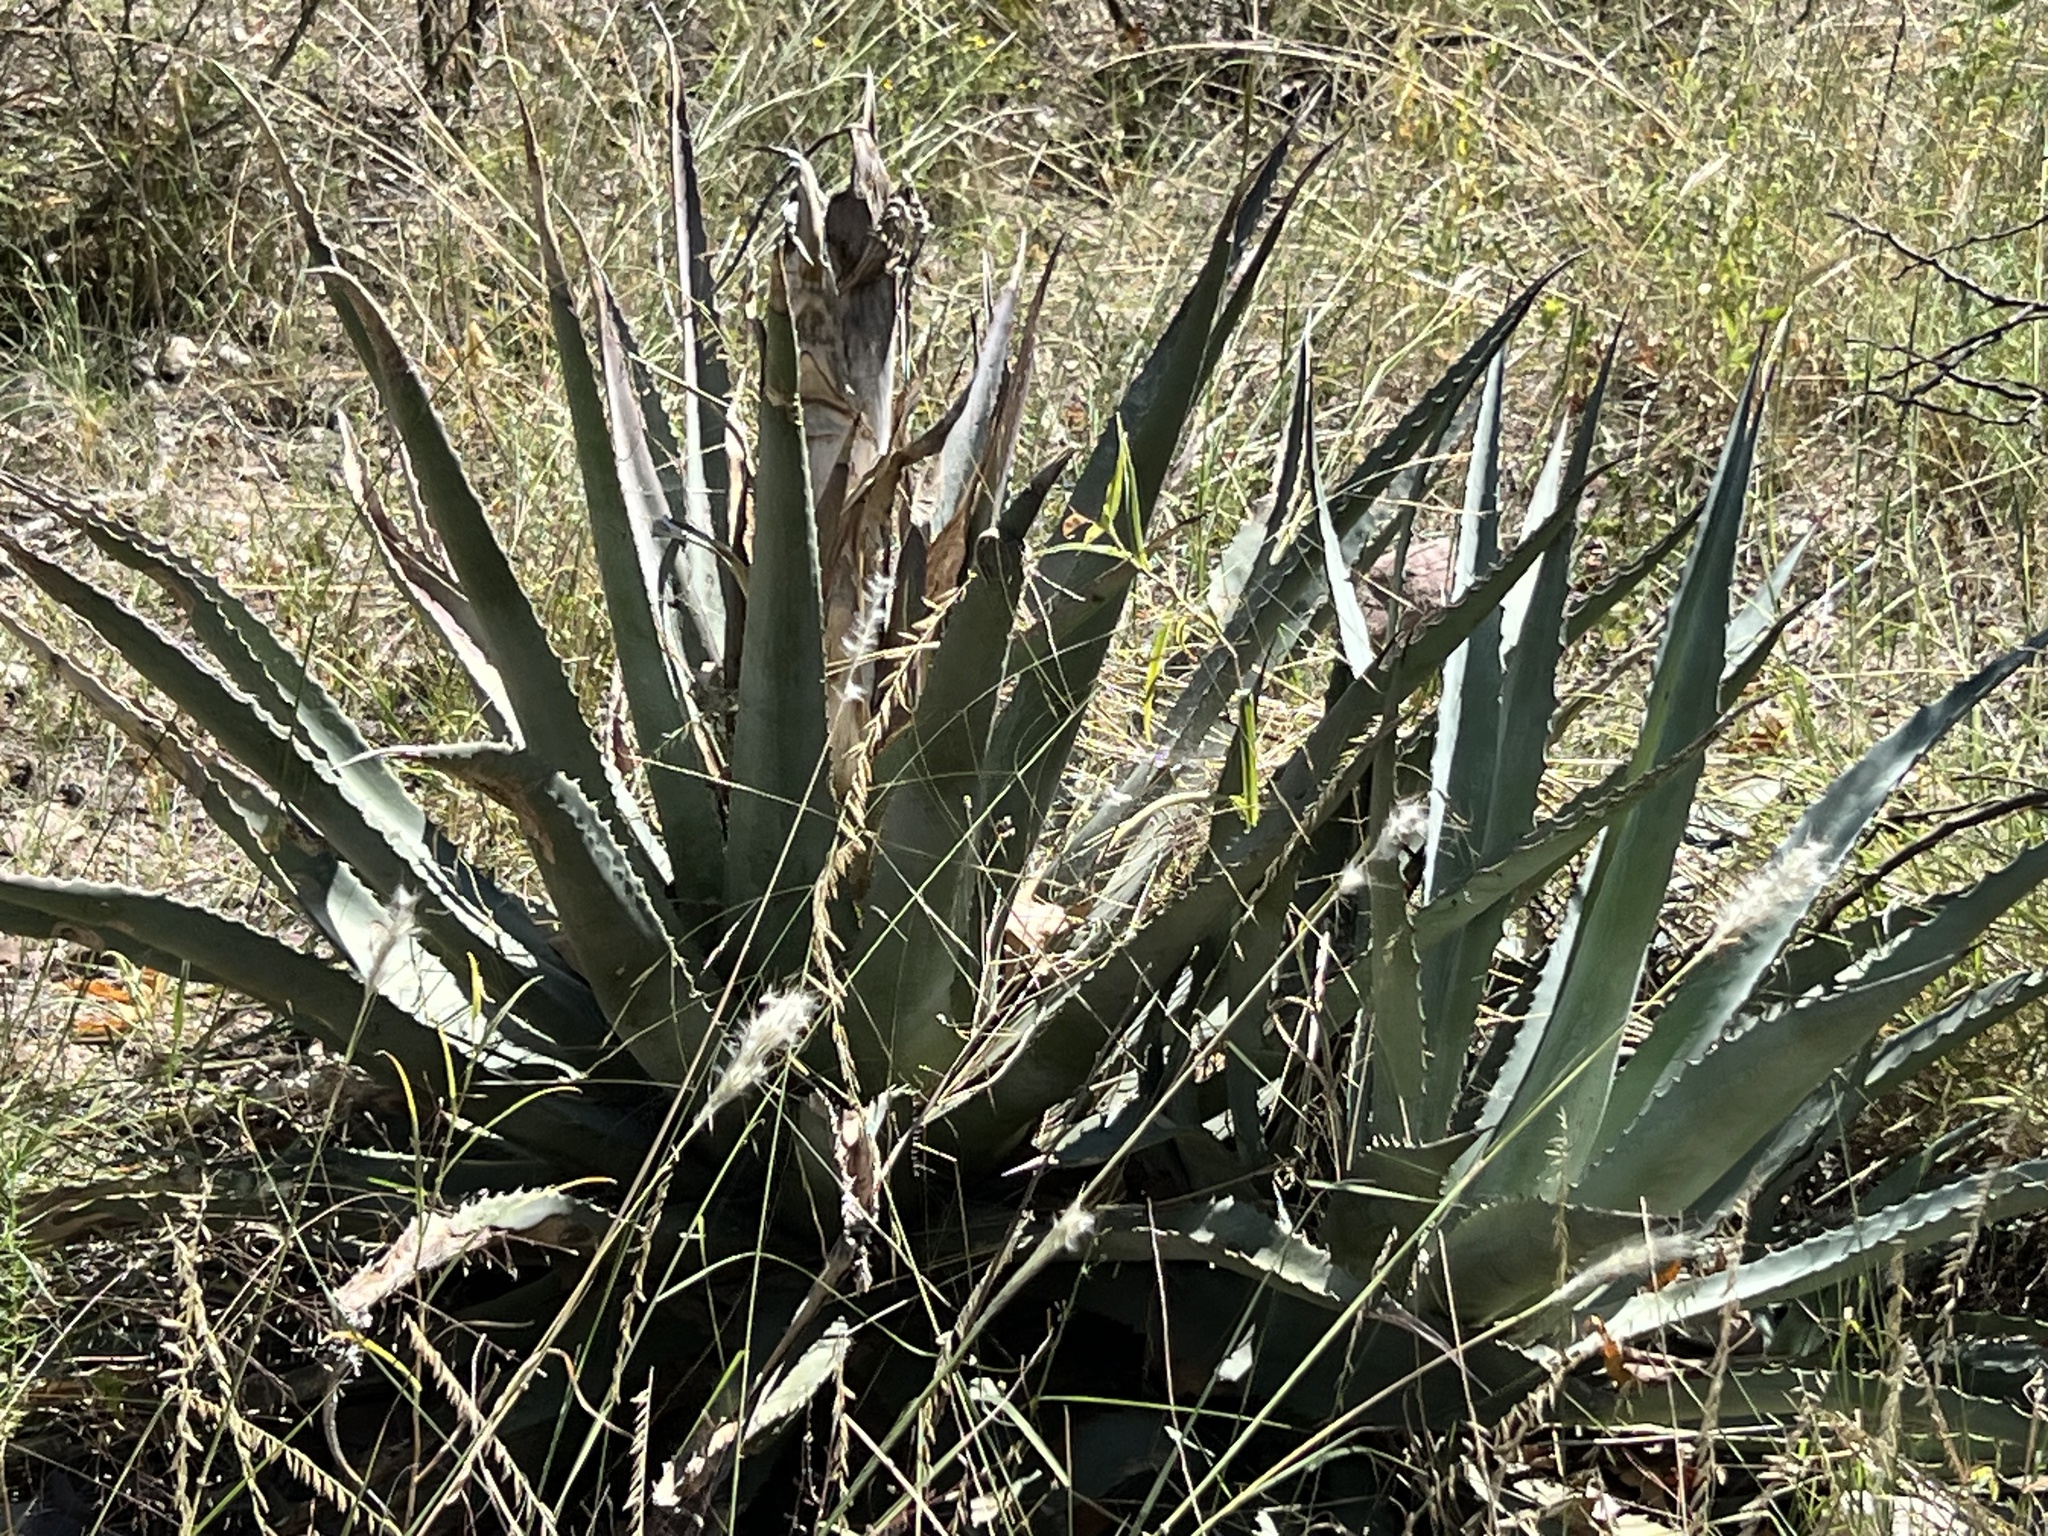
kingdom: Plantae
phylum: Tracheophyta
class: Liliopsida
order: Asparagales
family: Asparagaceae
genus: Agave
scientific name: Agave palmeri
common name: Palmer agave
